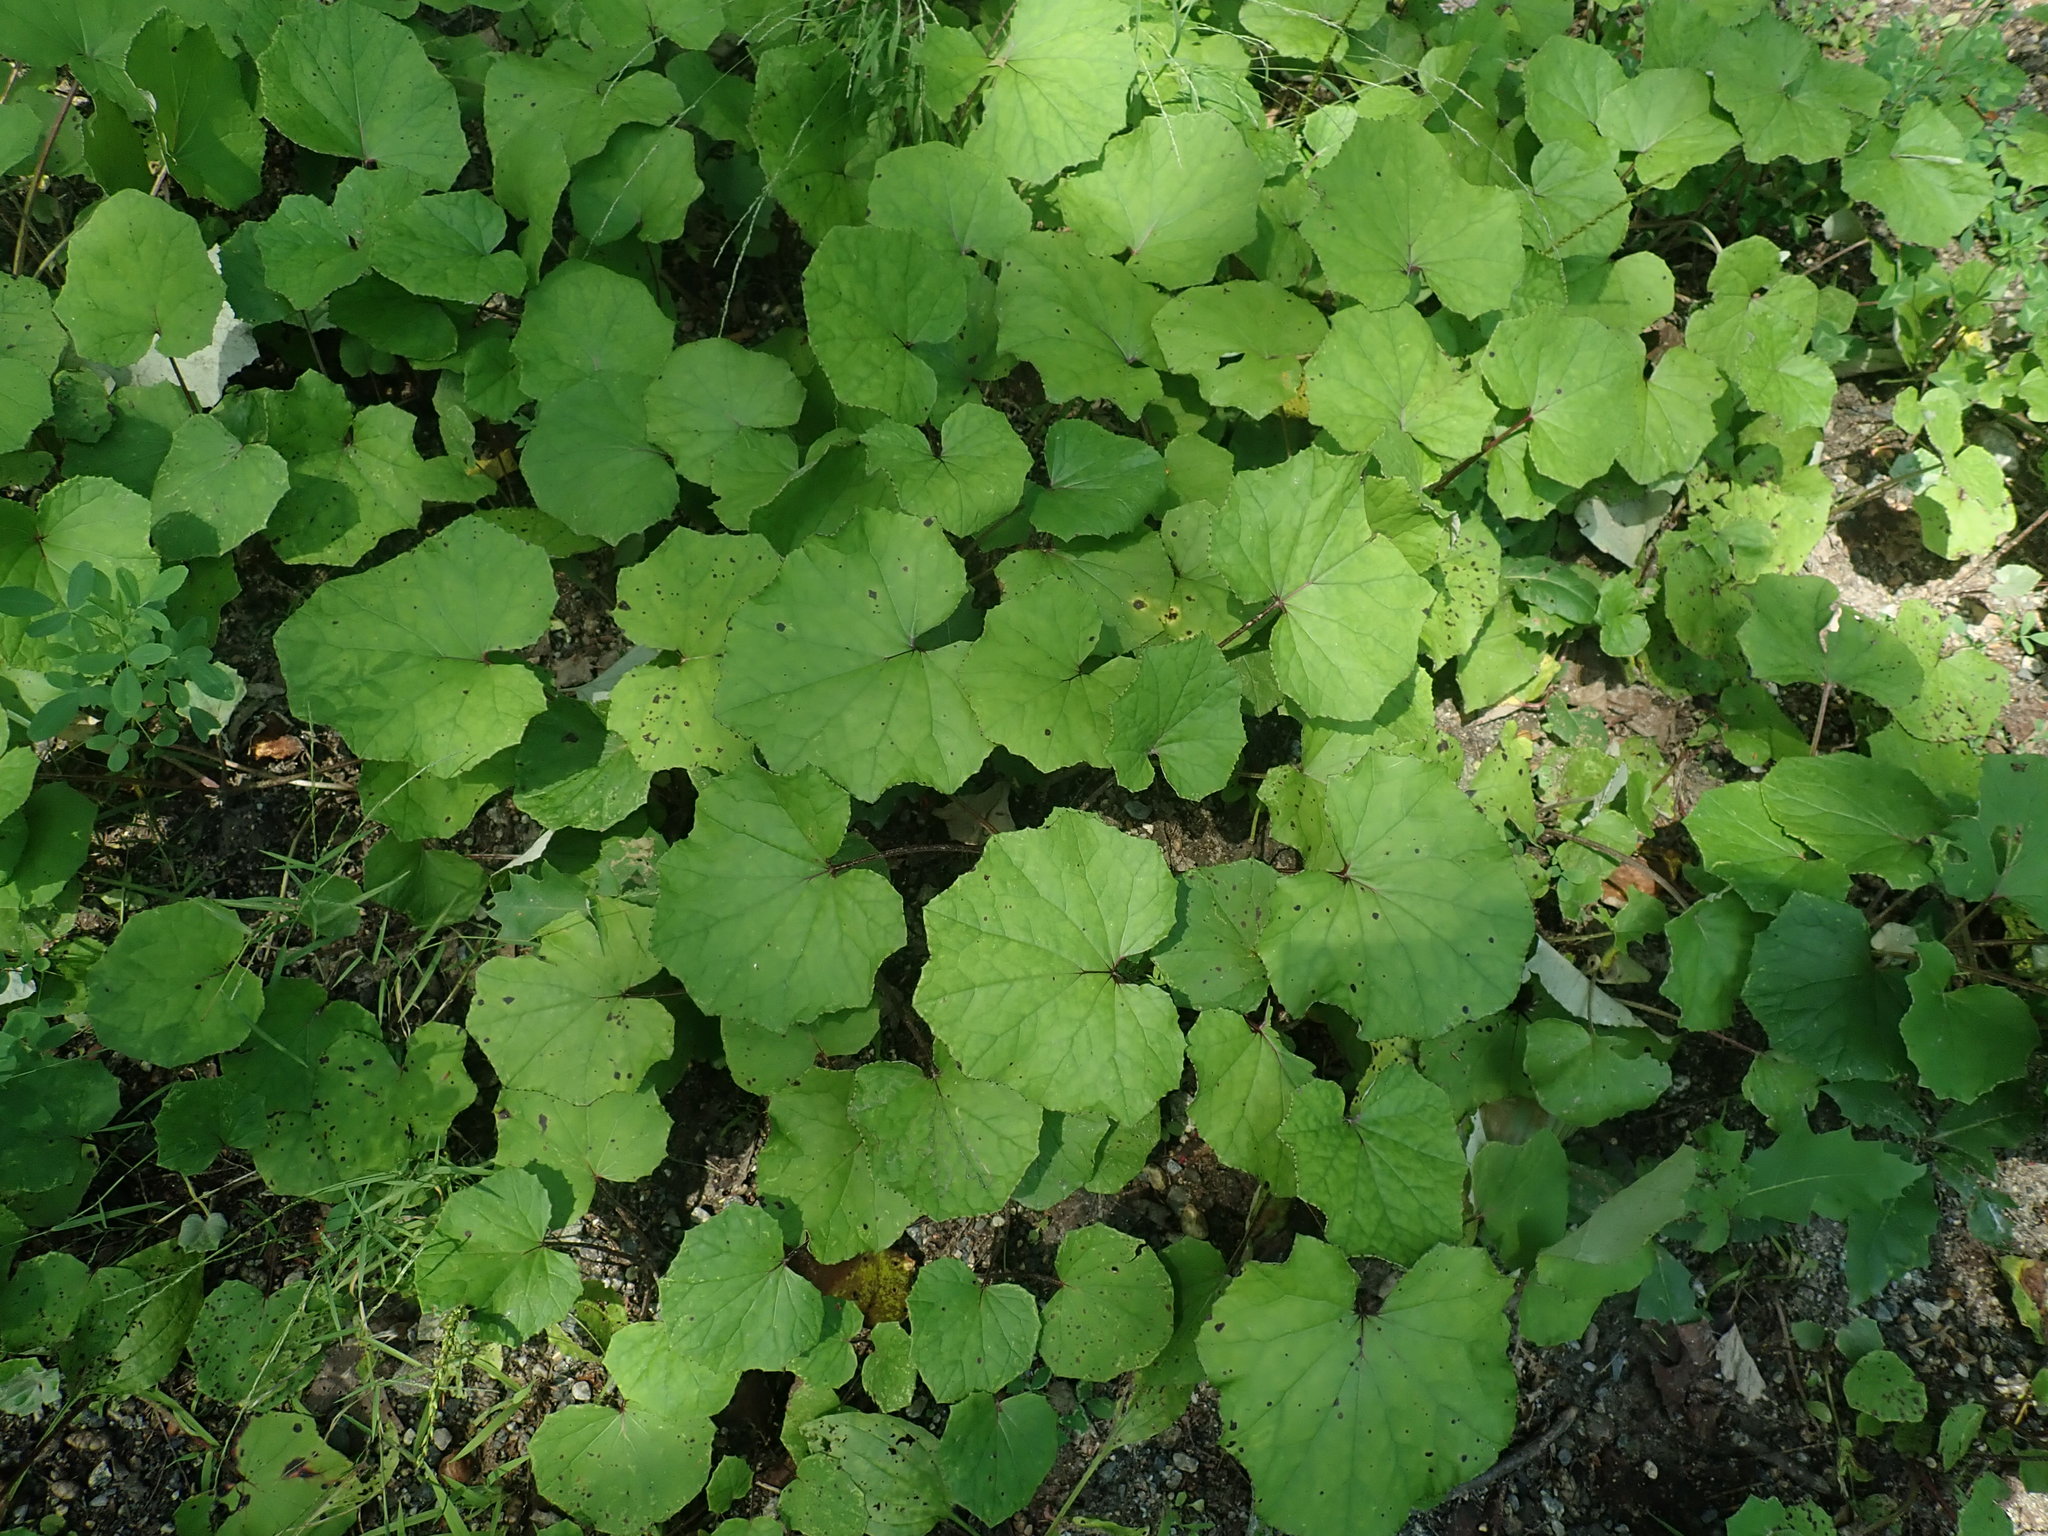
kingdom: Plantae
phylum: Tracheophyta
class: Magnoliopsida
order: Asterales
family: Asteraceae
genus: Tussilago
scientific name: Tussilago farfara
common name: Coltsfoot
